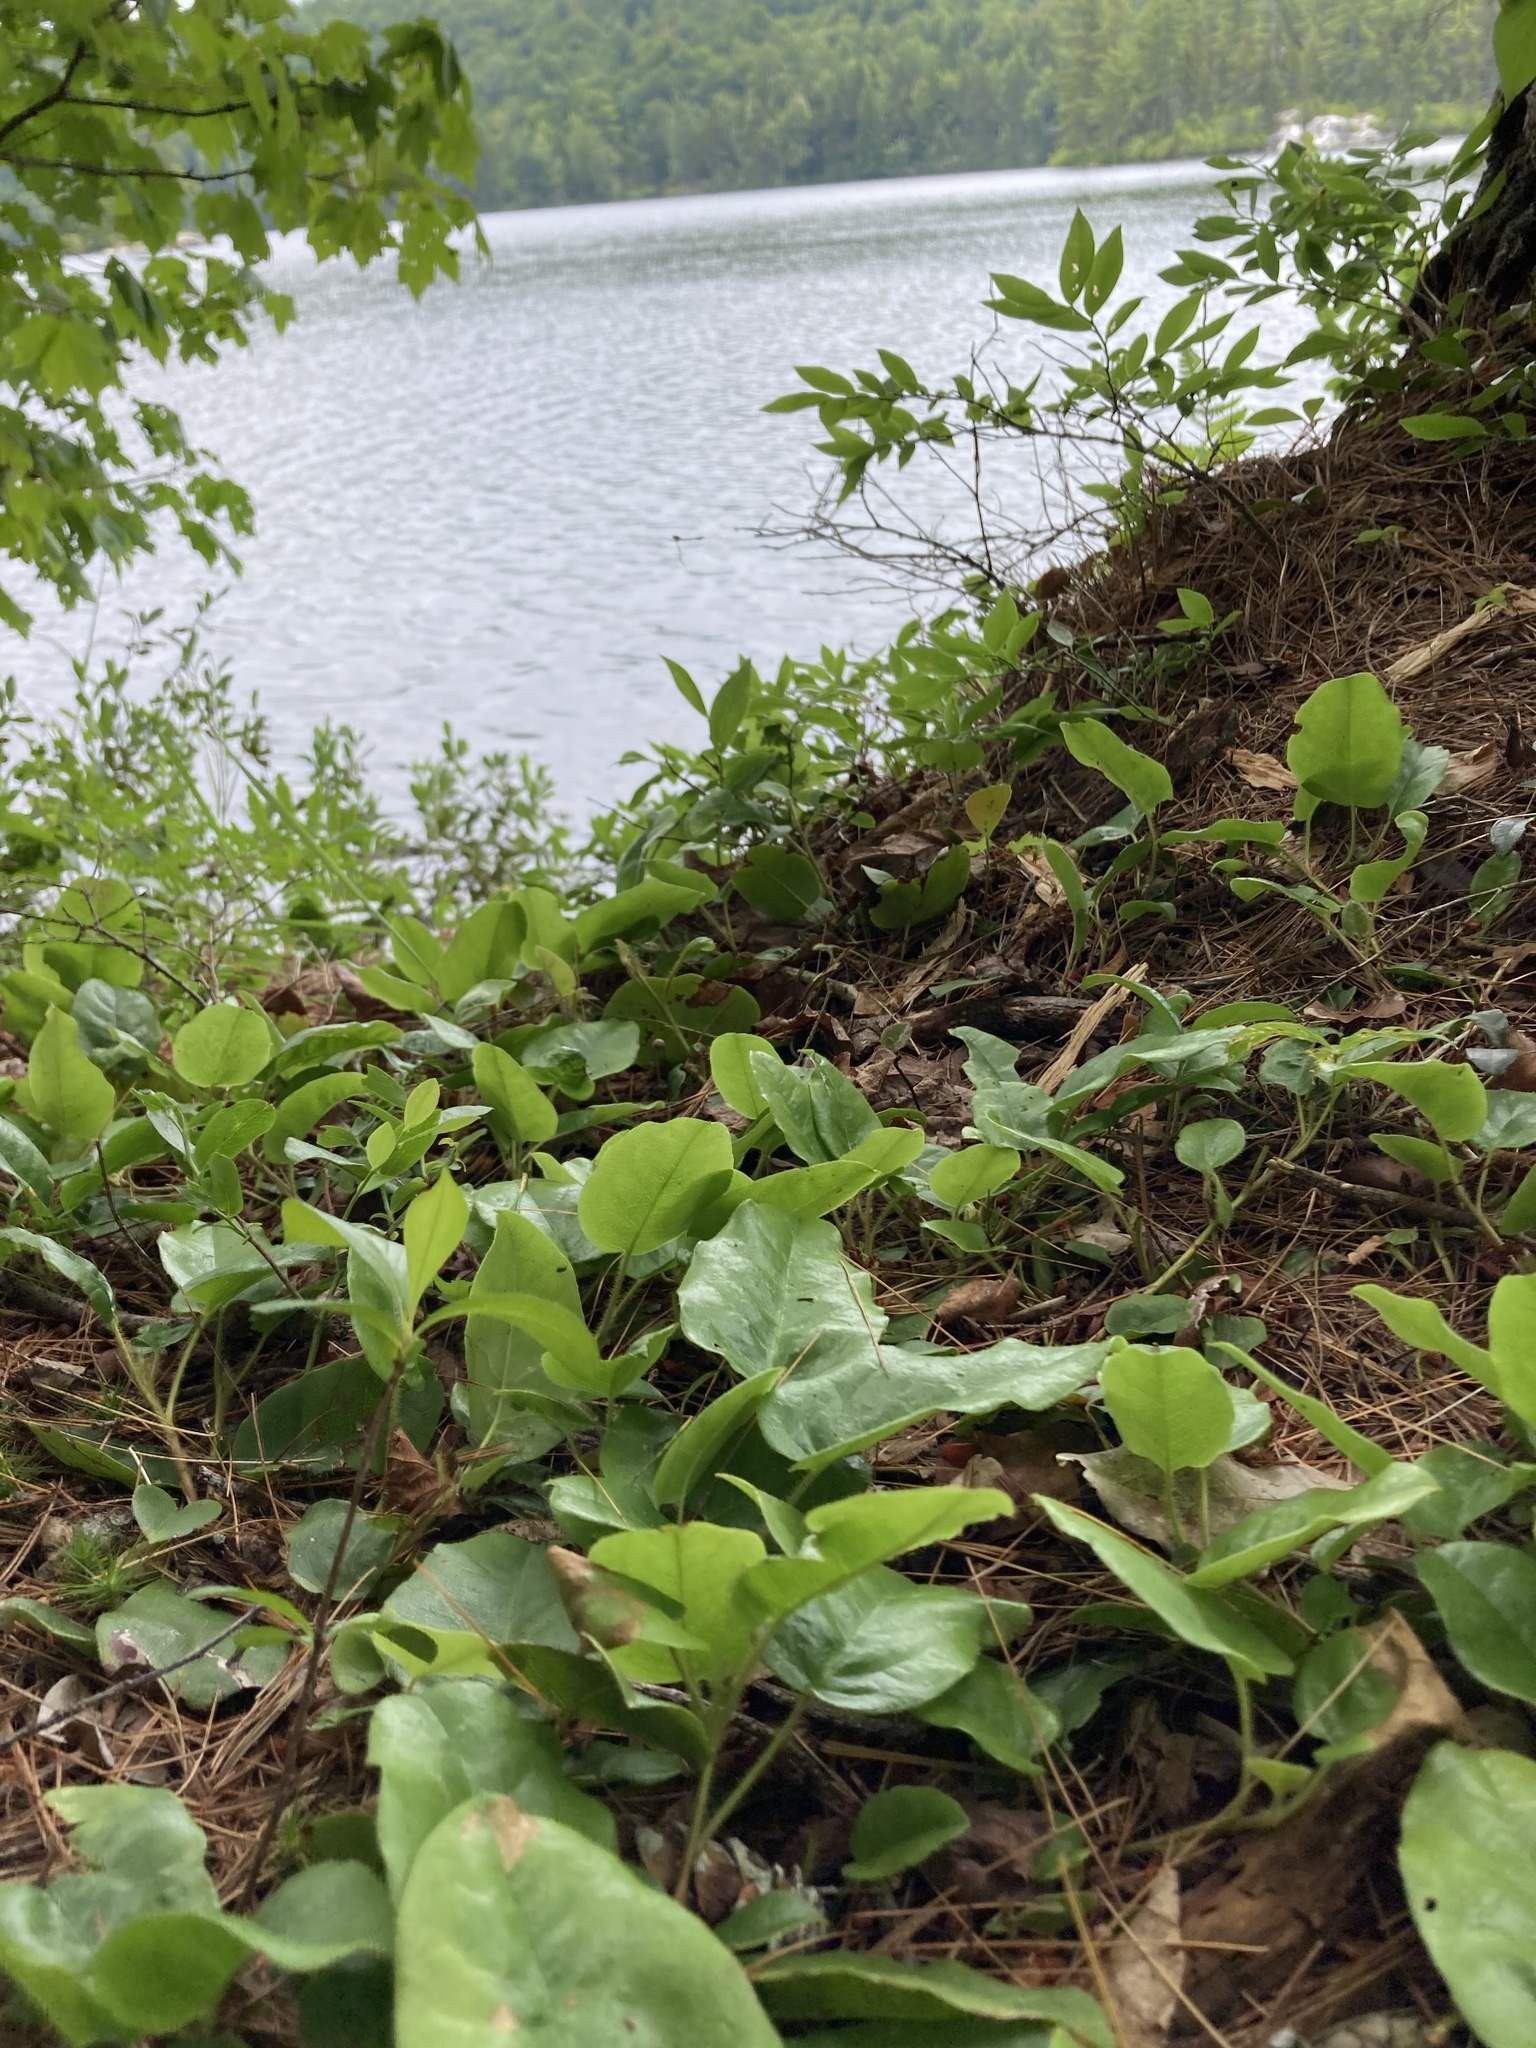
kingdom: Plantae
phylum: Tracheophyta
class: Magnoliopsida
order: Ericales
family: Ericaceae
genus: Epigaea
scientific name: Epigaea repens
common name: Gravelroot
